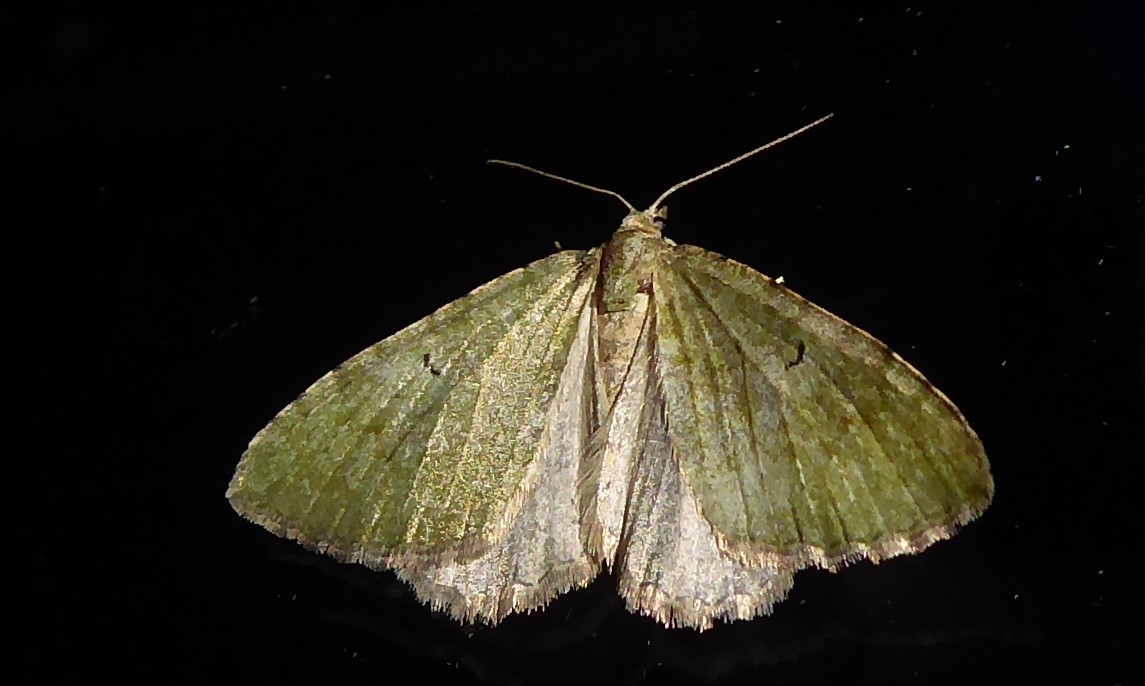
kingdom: Animalia
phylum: Arthropoda
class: Insecta
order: Lepidoptera
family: Geometridae
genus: Epyaxa
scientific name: Epyaxa rosearia
